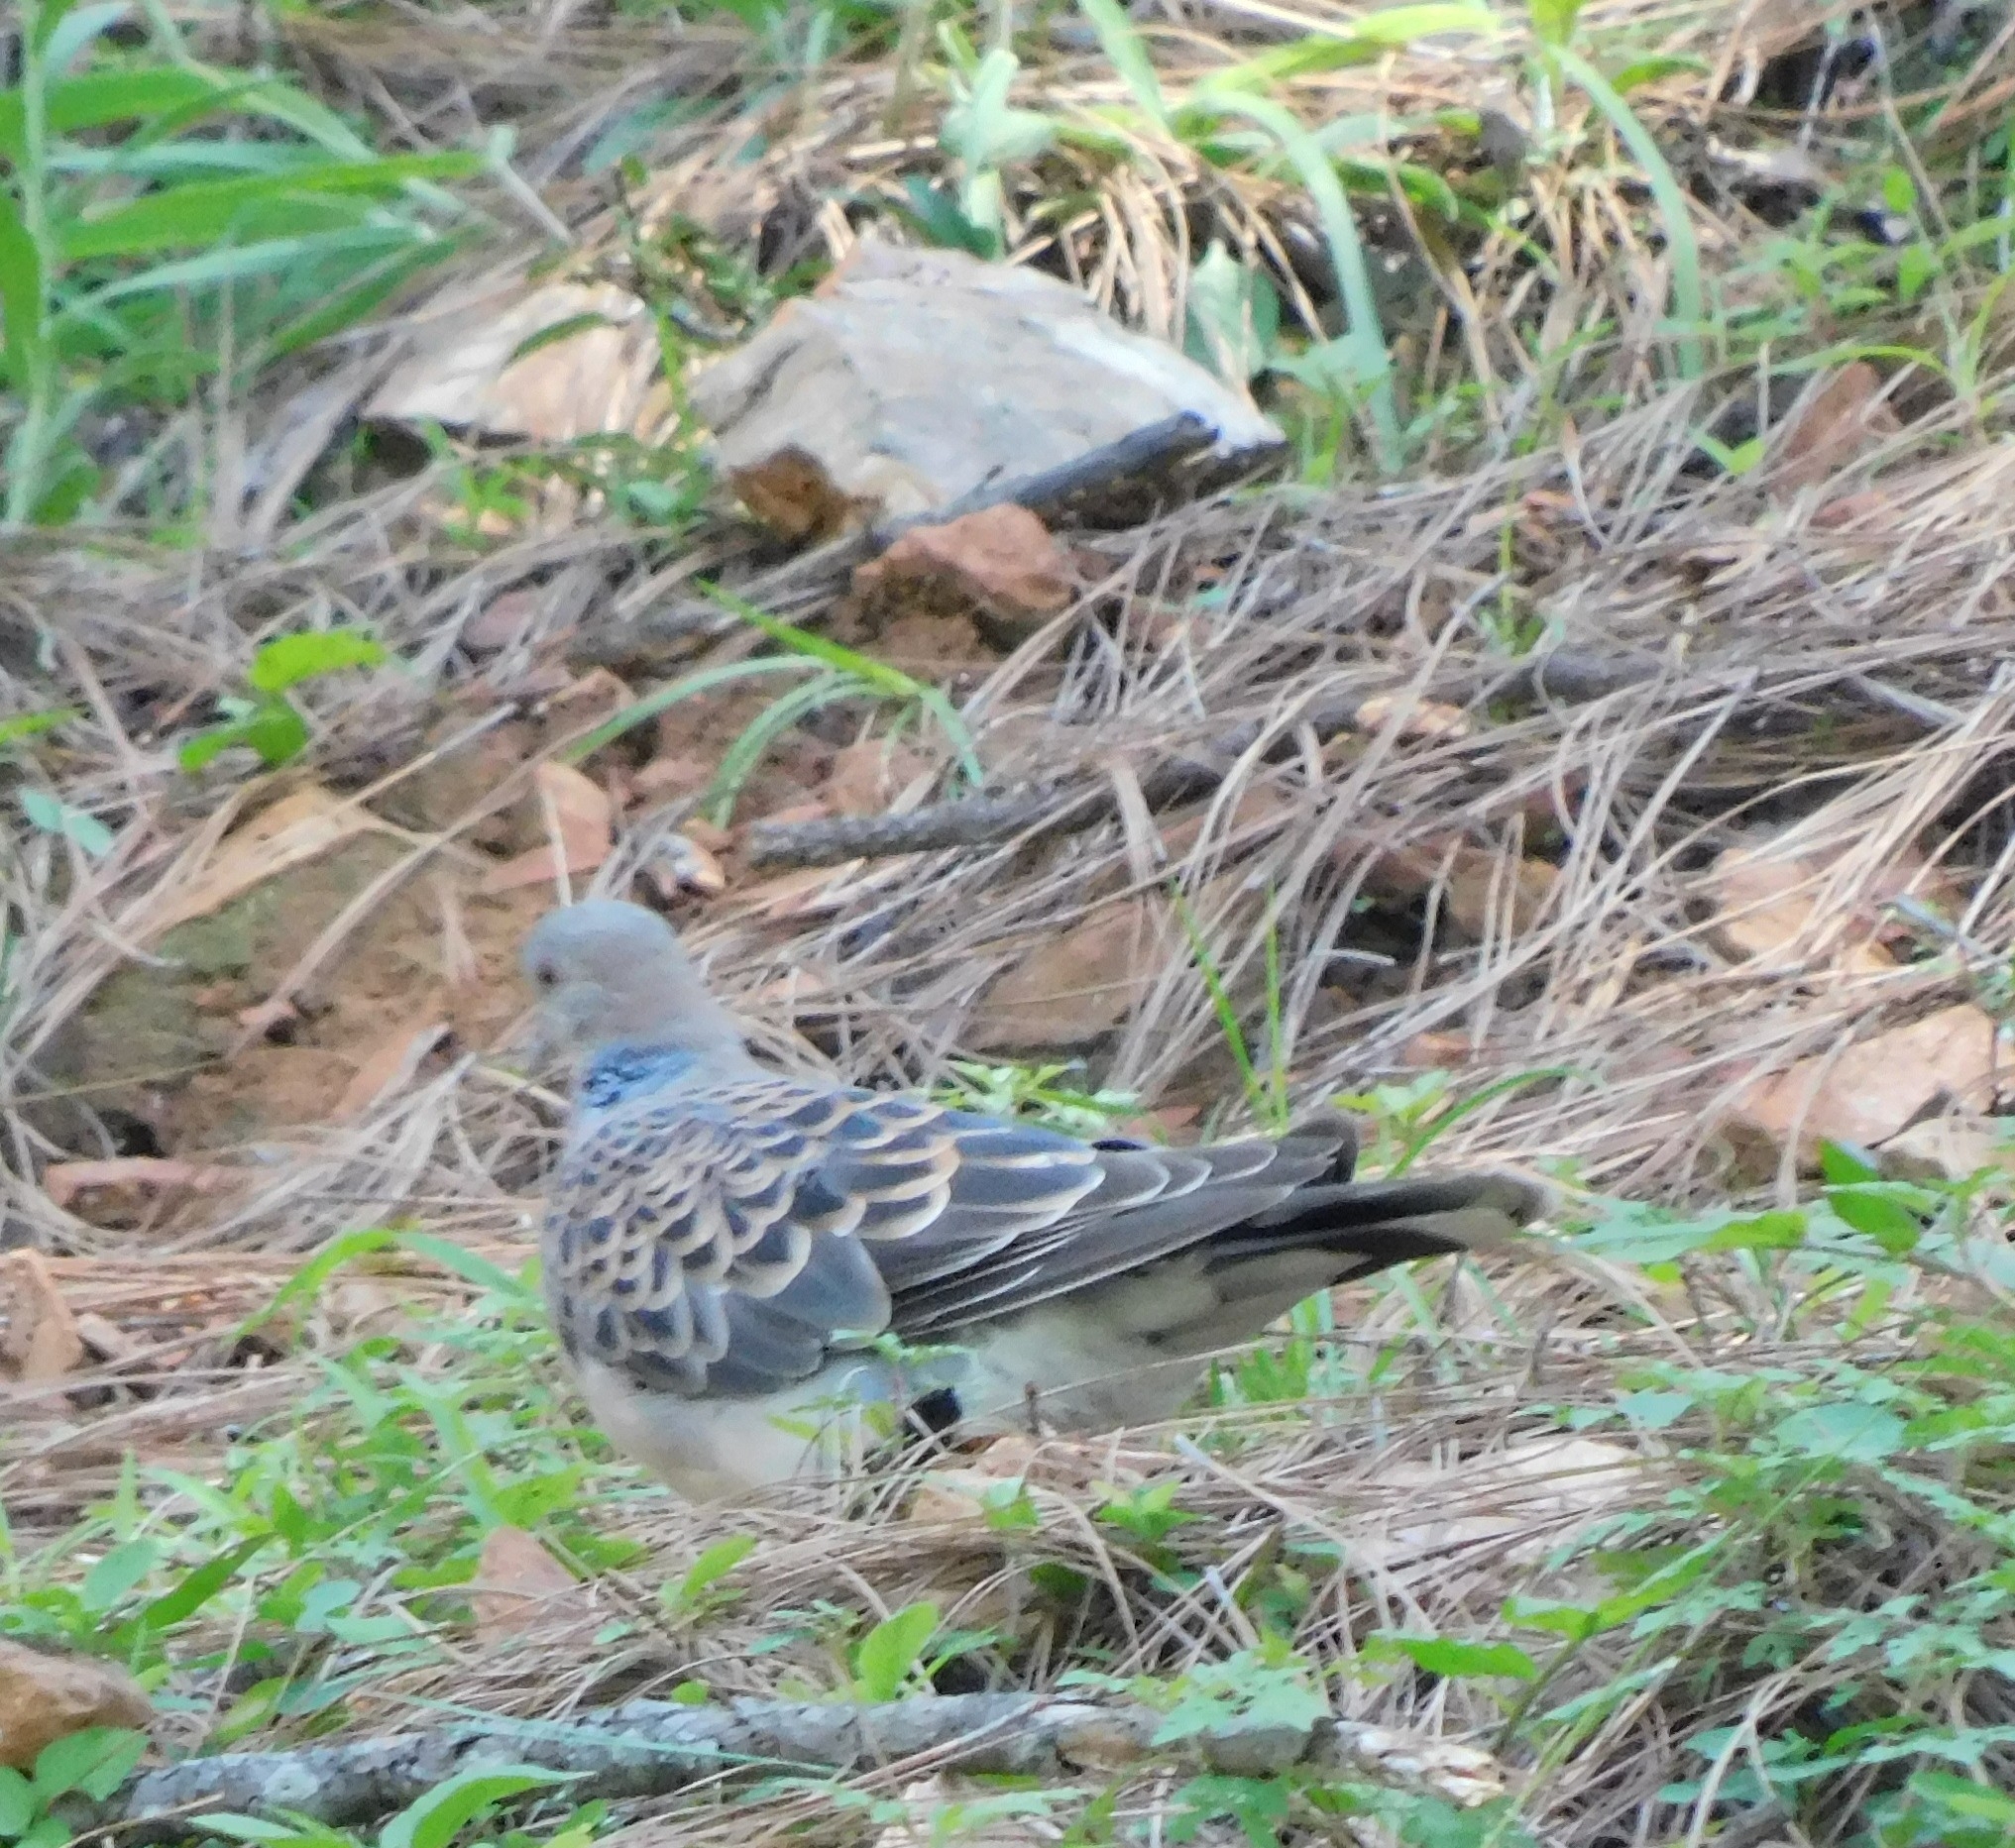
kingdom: Animalia
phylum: Chordata
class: Aves
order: Columbiformes
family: Columbidae
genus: Streptopelia
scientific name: Streptopelia orientalis
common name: Oriental turtle dove
